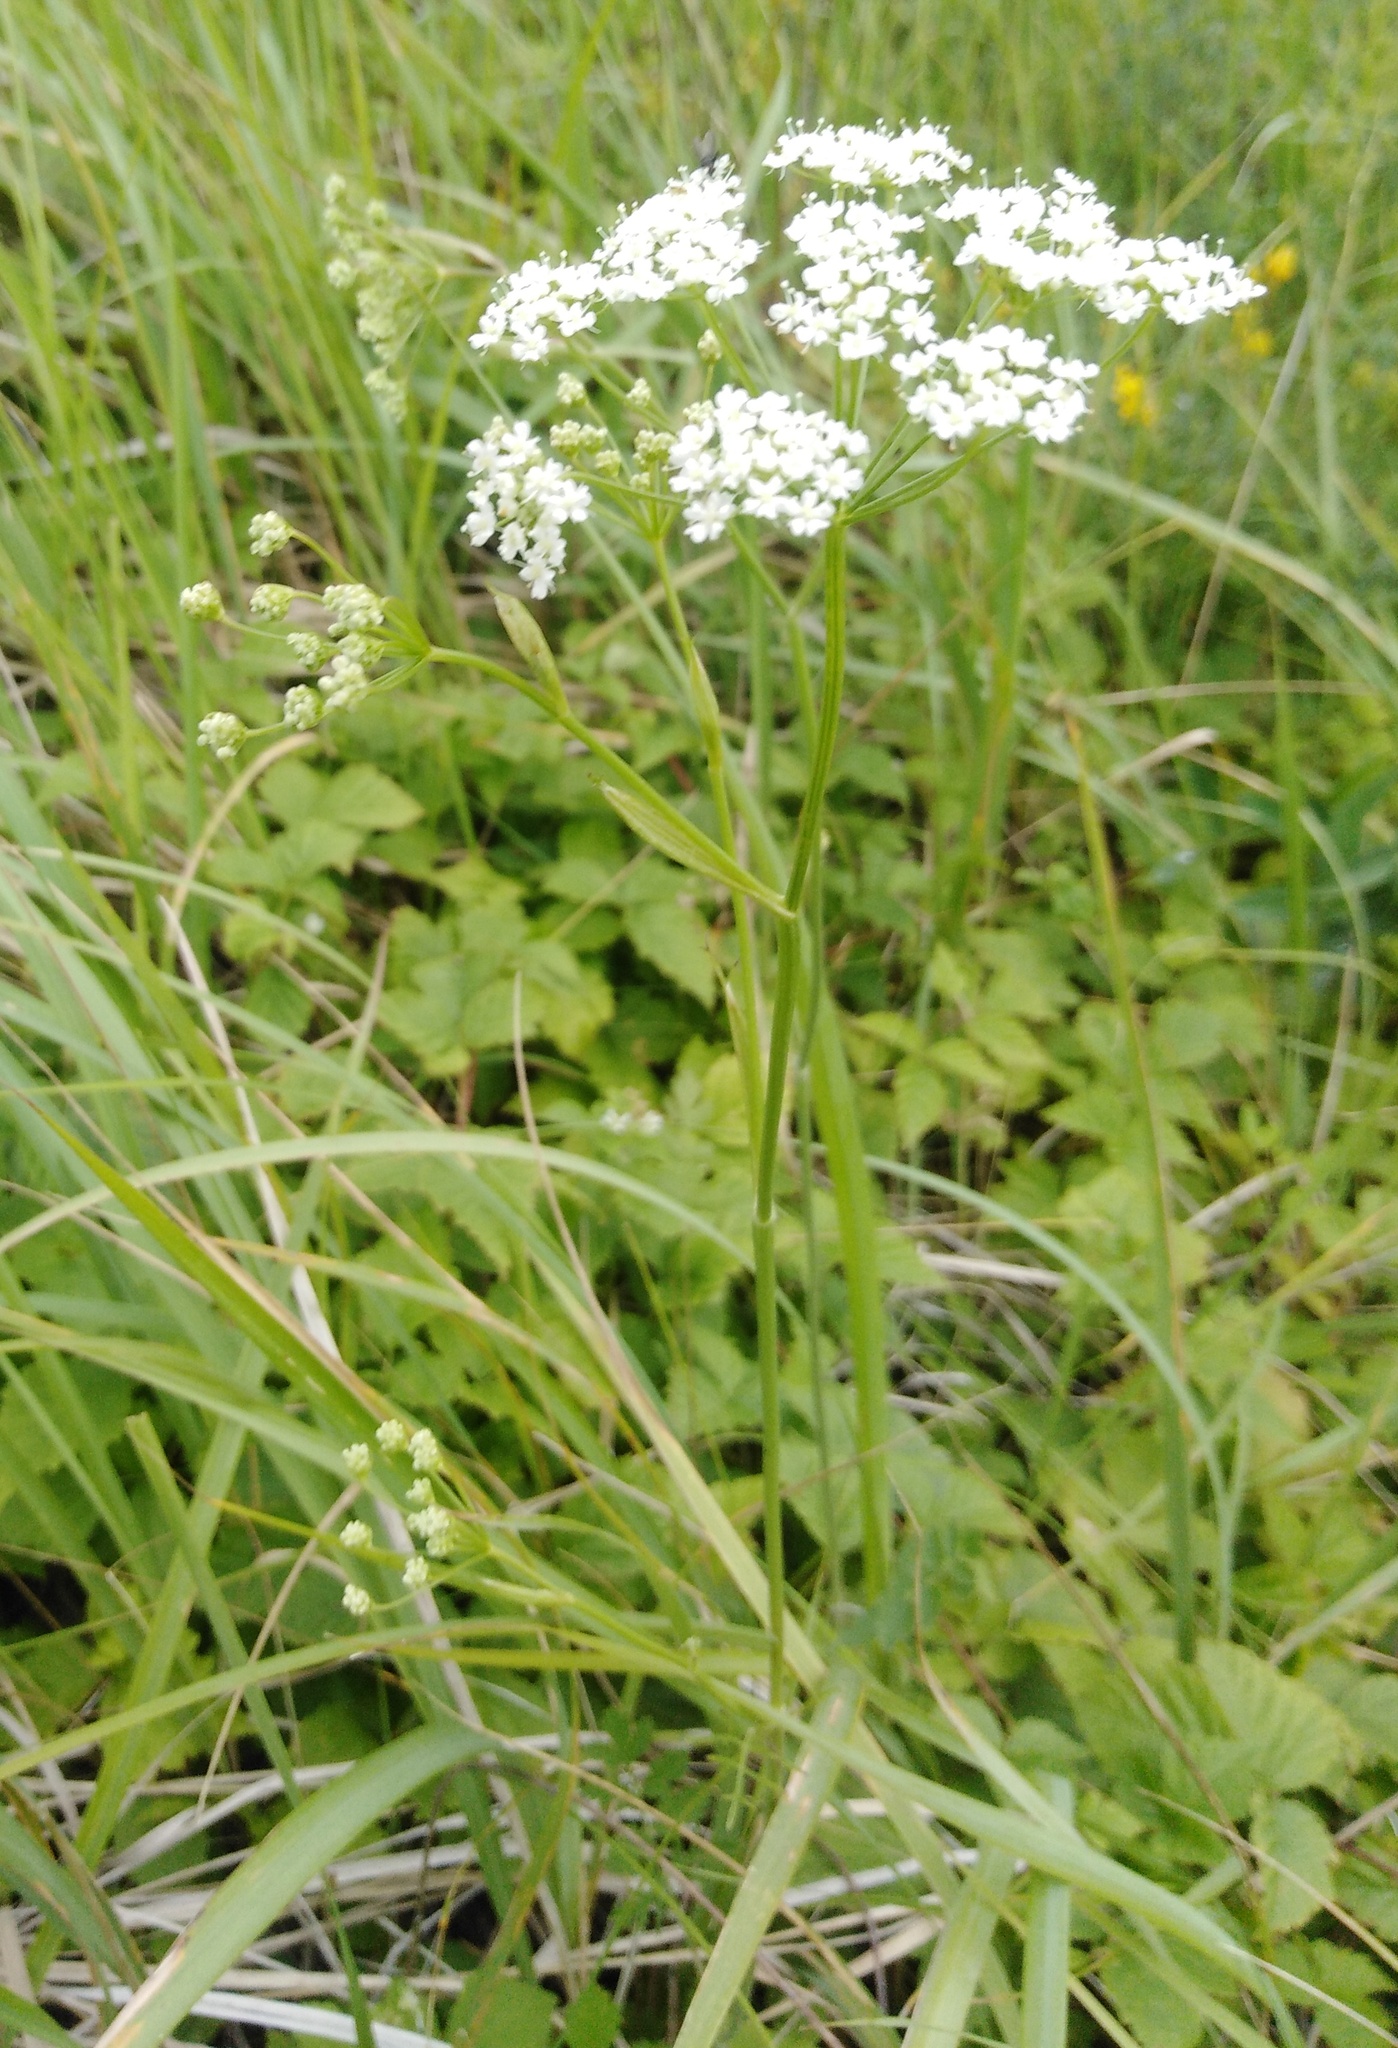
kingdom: Plantae
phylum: Tracheophyta
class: Magnoliopsida
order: Apiales
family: Apiaceae
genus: Pimpinella
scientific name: Pimpinella saxifraga
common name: Burnet-saxifrage
